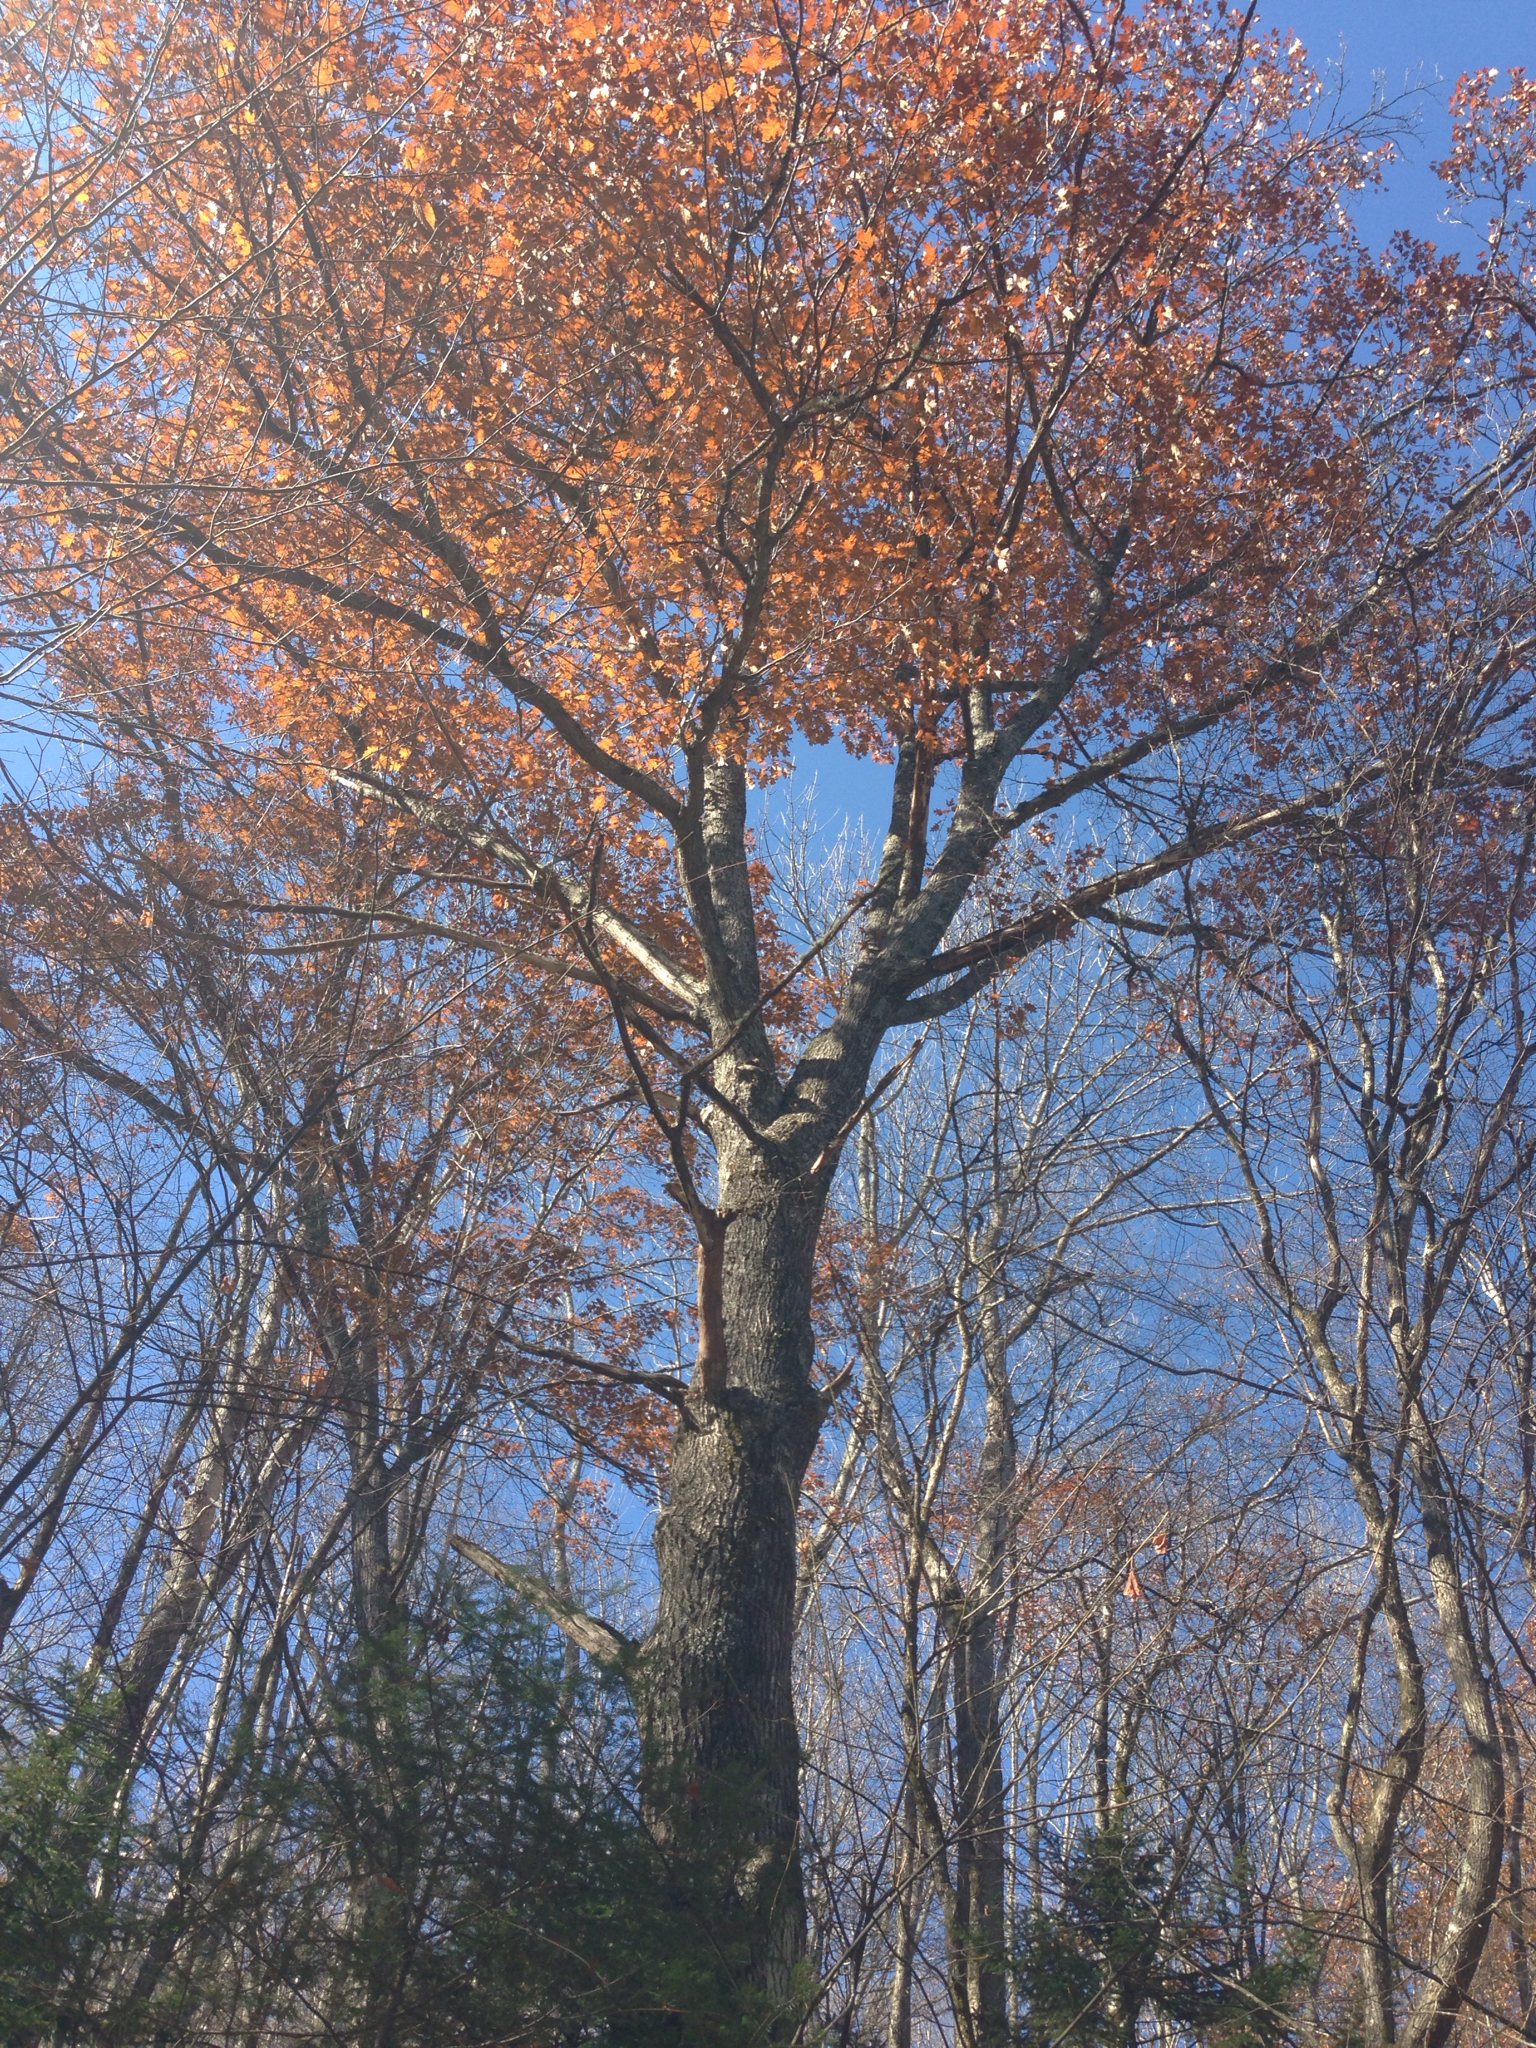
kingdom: Plantae
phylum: Tracheophyta
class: Magnoliopsida
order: Fagales
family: Fagaceae
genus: Quercus
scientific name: Quercus rubra
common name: Red oak
